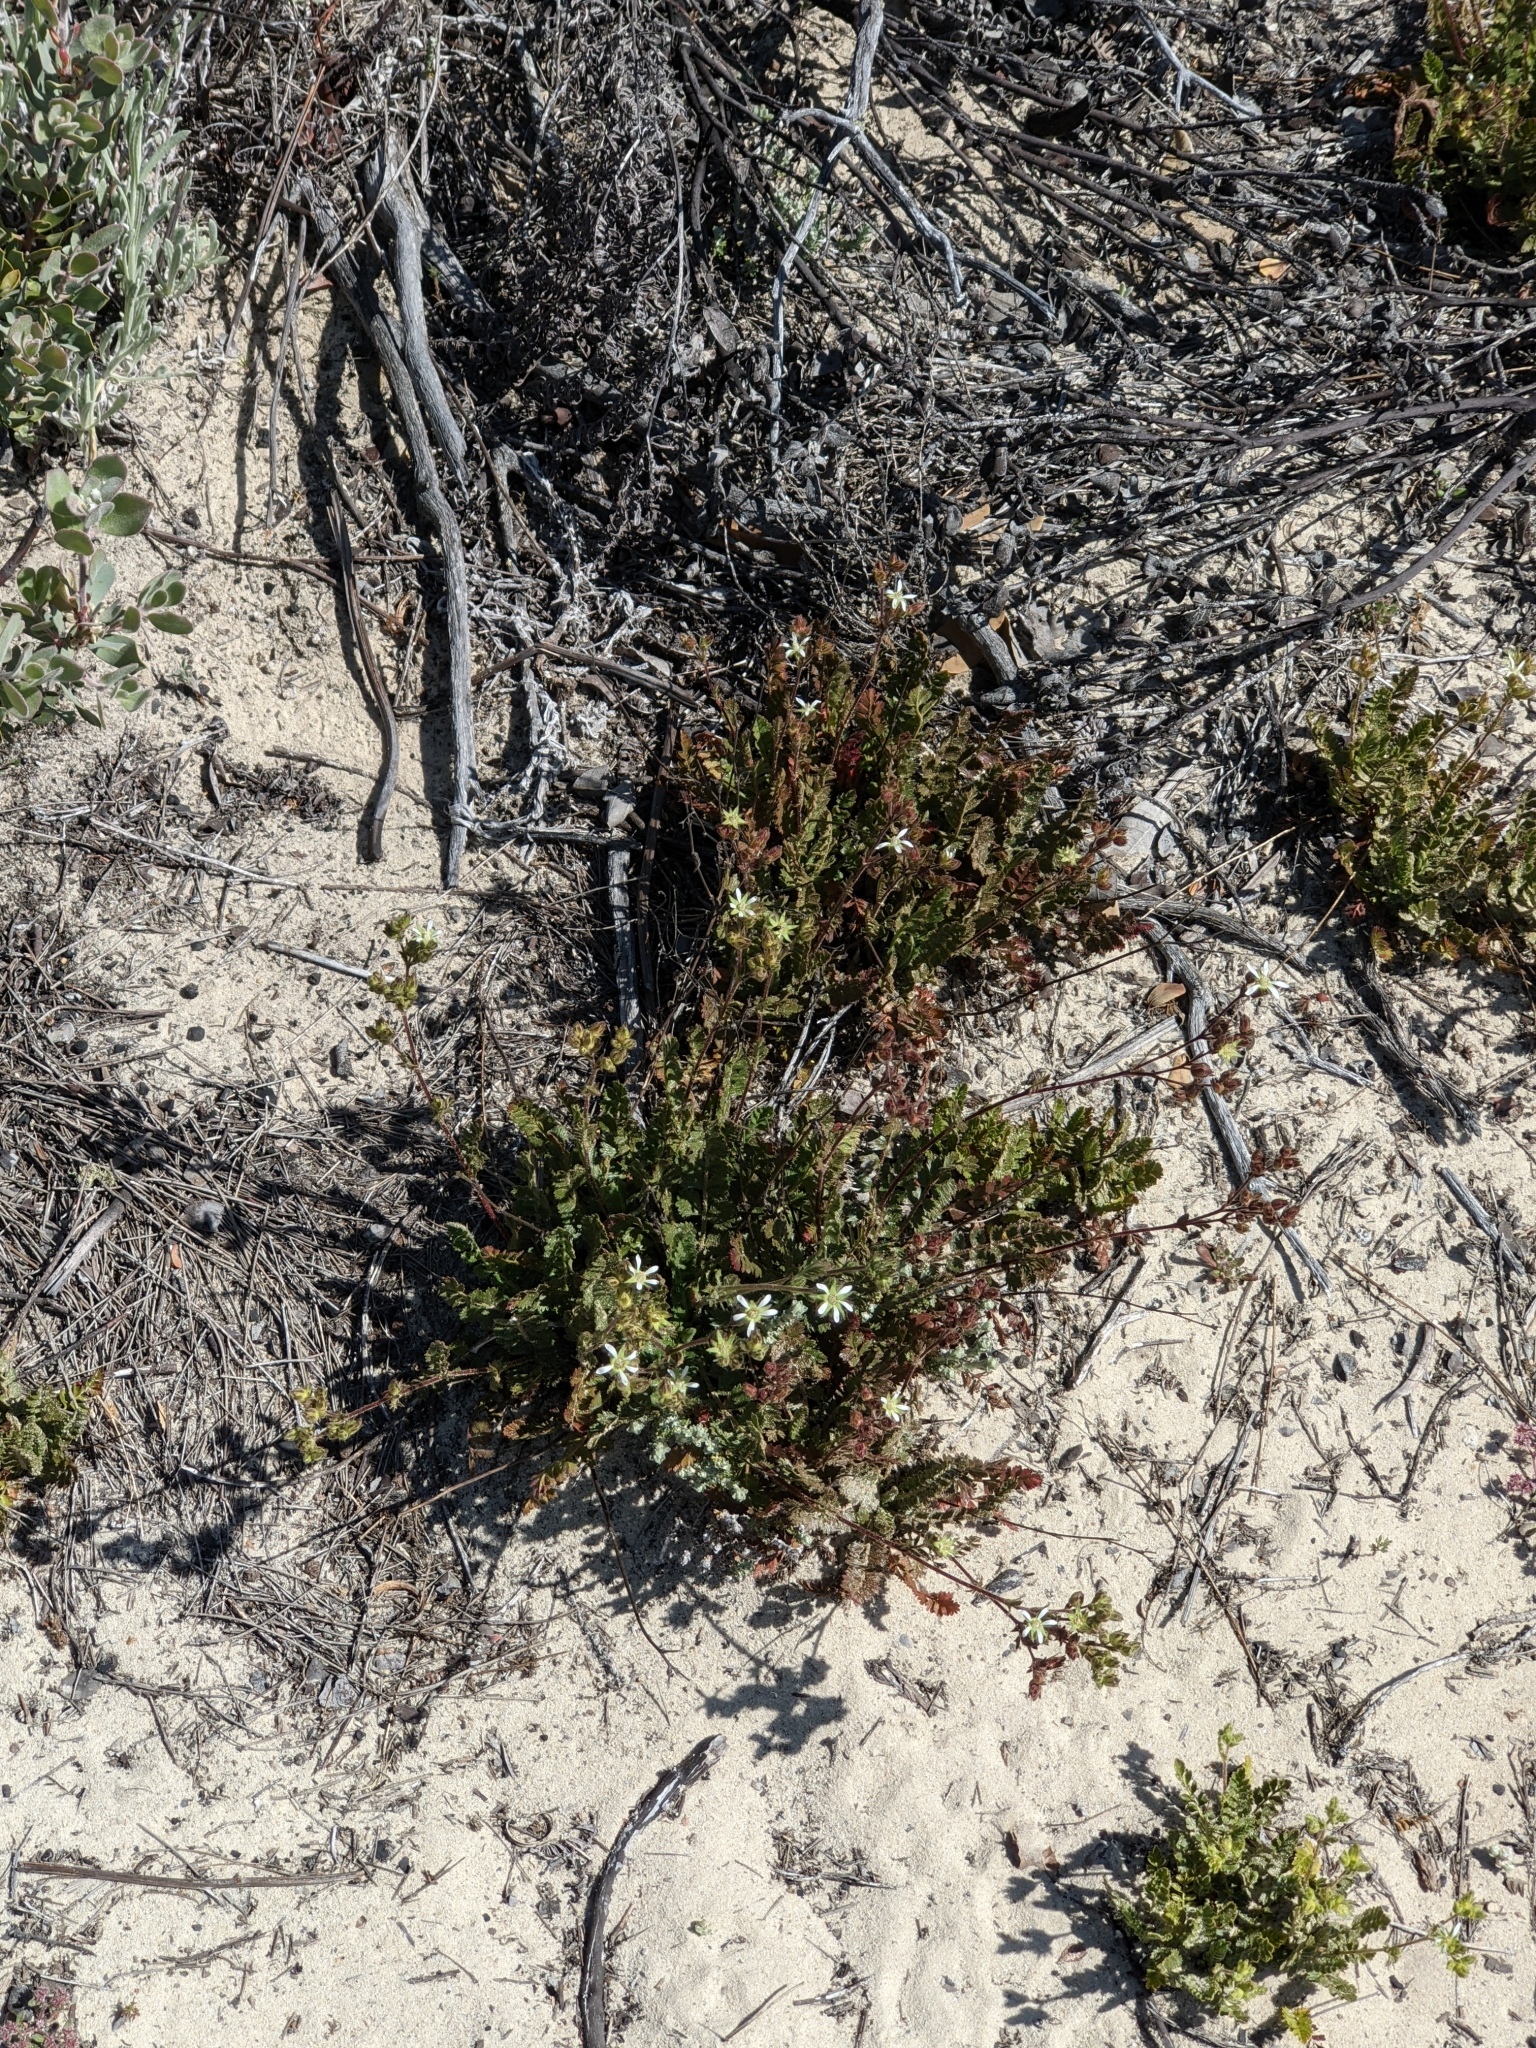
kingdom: Plantae
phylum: Tracheophyta
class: Magnoliopsida
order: Rosales
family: Rosaceae
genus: Potentilla
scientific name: Potentilla
